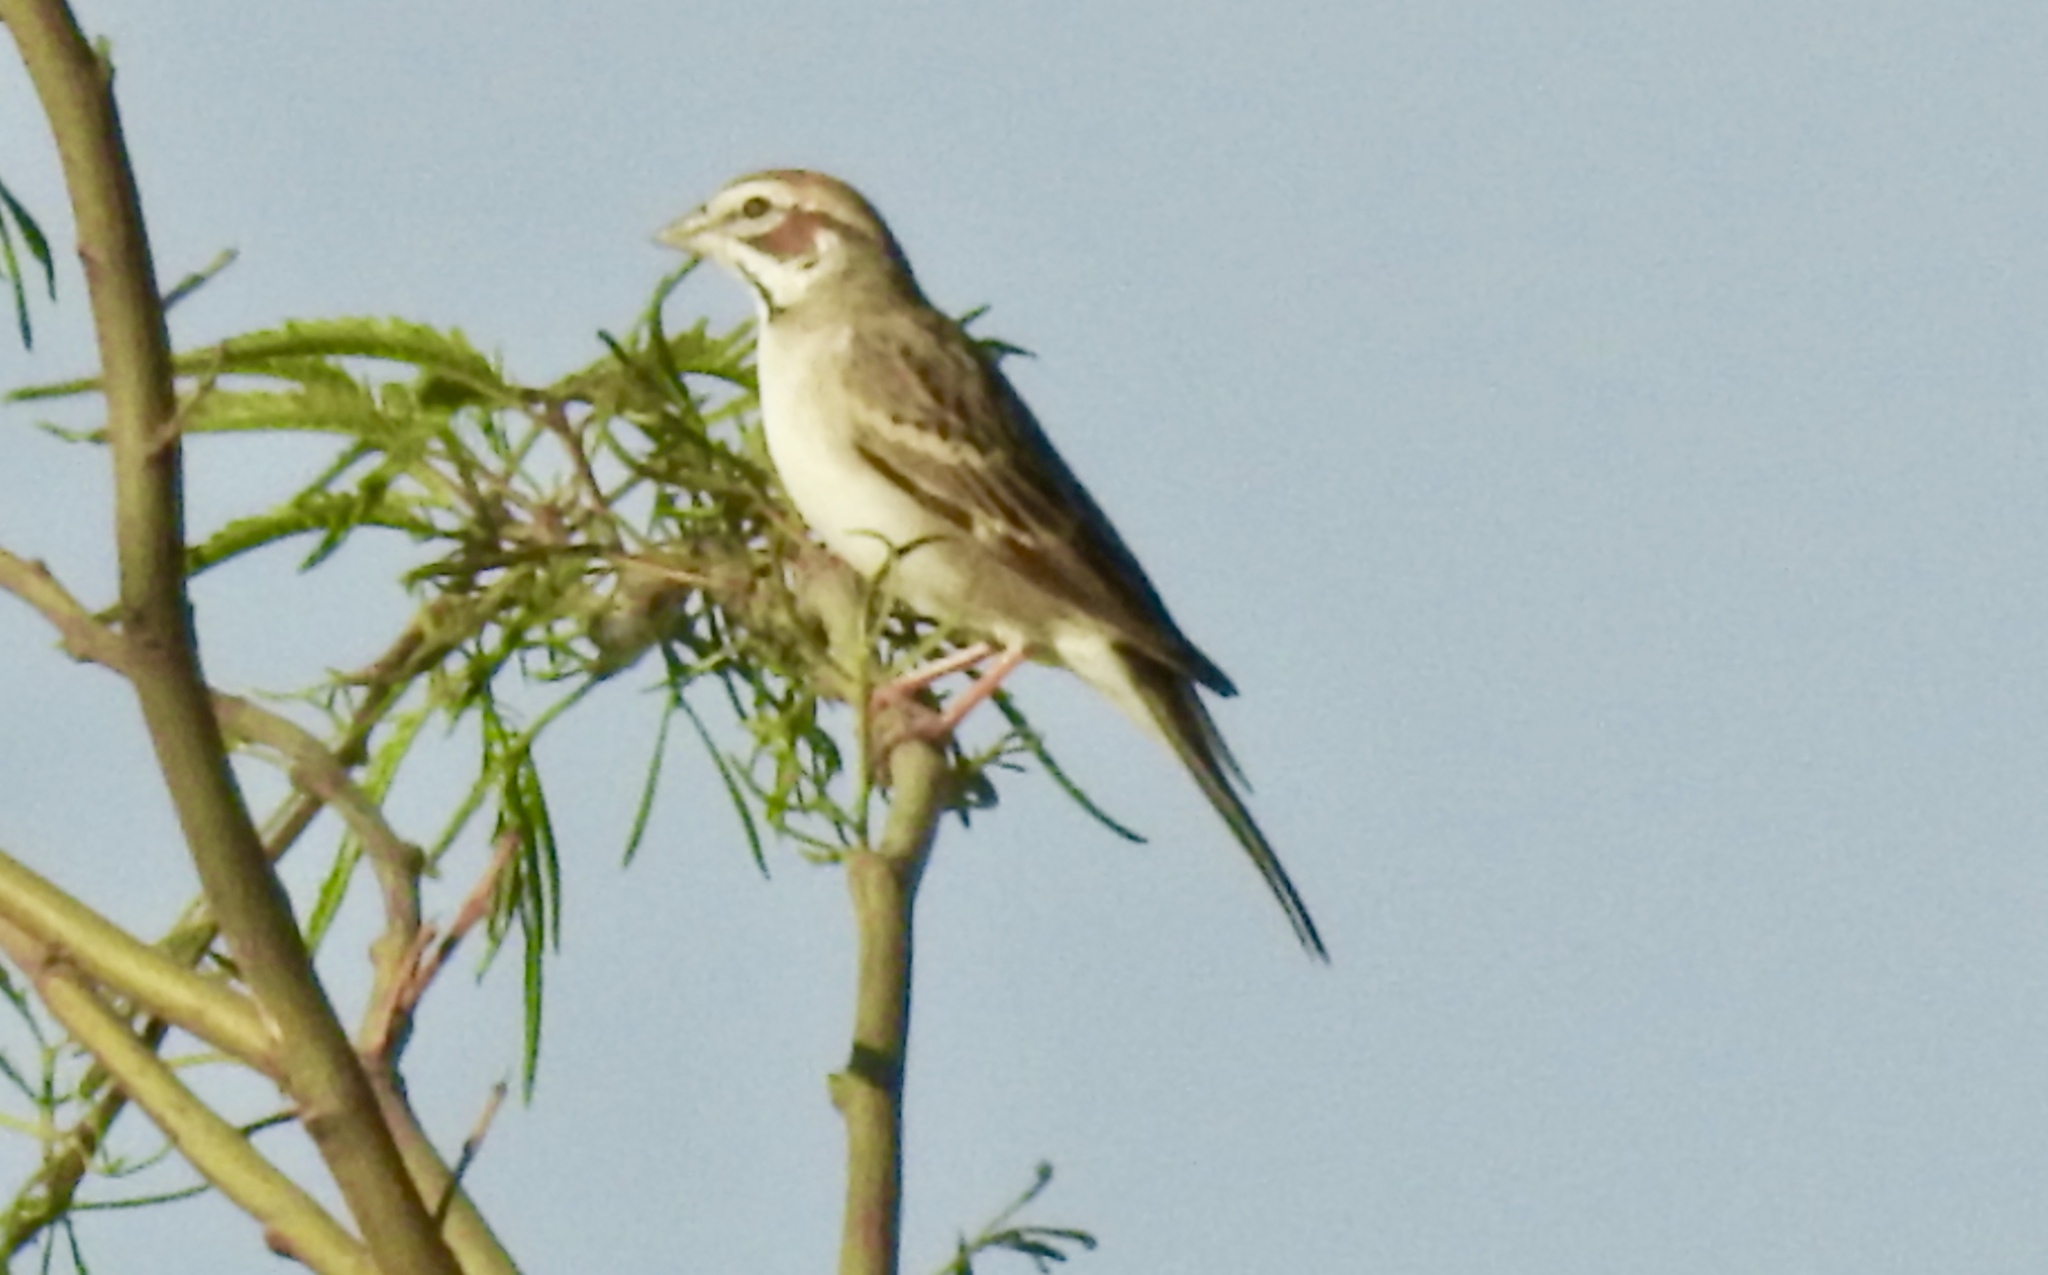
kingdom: Animalia
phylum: Chordata
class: Aves
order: Passeriformes
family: Passerellidae
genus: Chondestes
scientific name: Chondestes grammacus
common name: Lark sparrow
